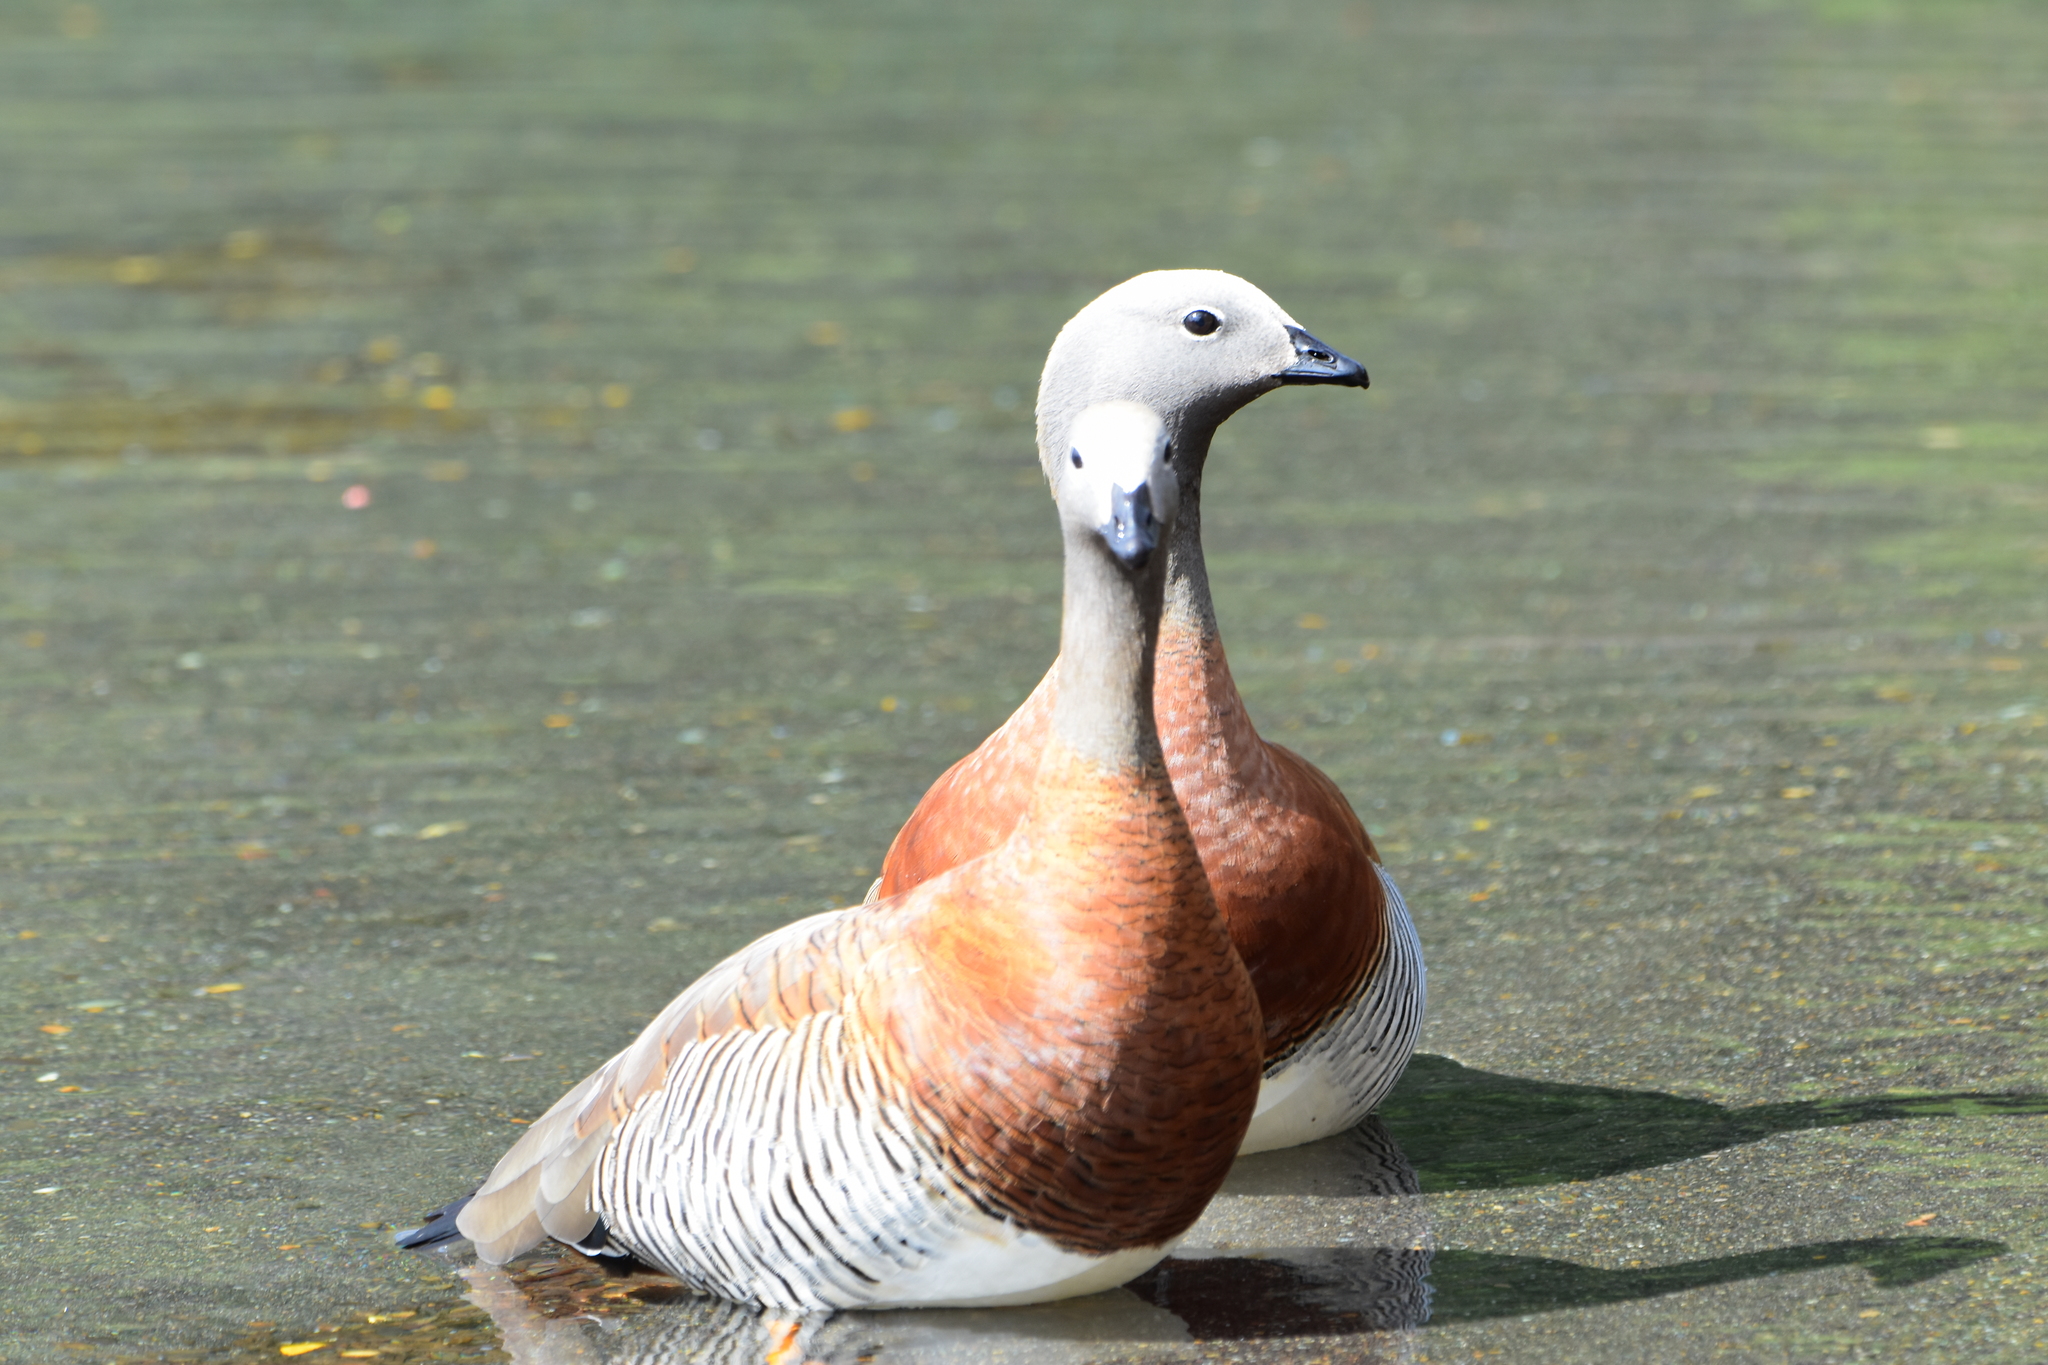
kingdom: Animalia
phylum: Chordata
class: Aves
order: Anseriformes
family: Anatidae
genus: Chloephaga
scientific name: Chloephaga poliocephala
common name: Ashy-headed goose
